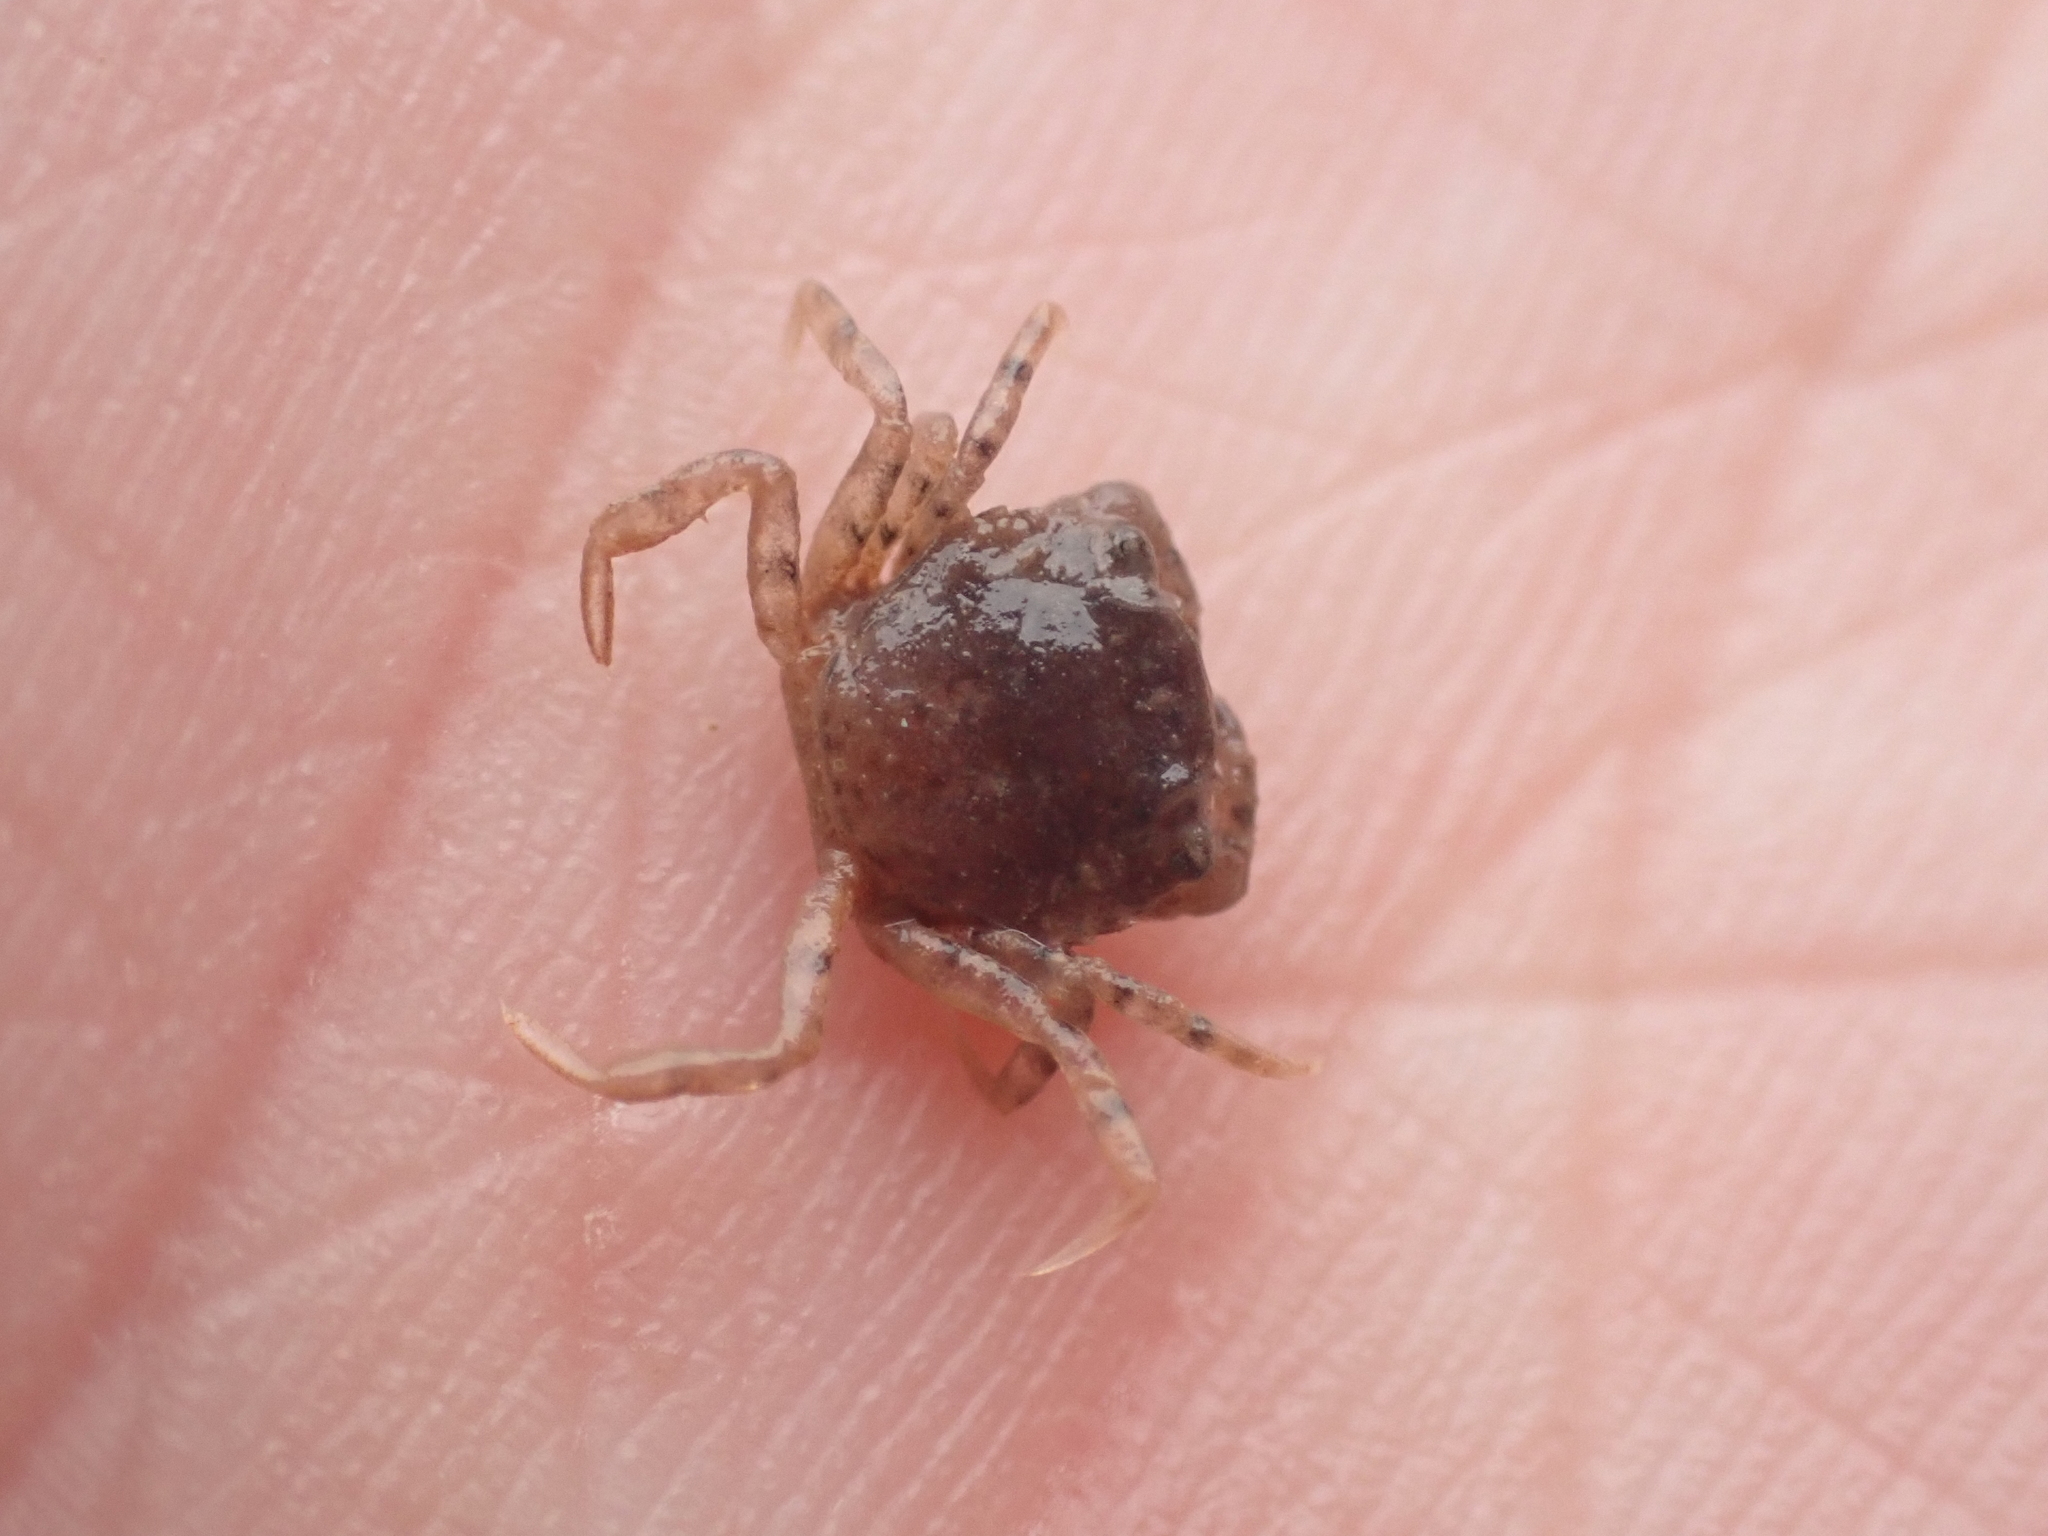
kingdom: Animalia
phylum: Arthropoda
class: Malacostraca
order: Decapoda
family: Carcinidae
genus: Carcinus
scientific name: Carcinus maenas
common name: European green crab
